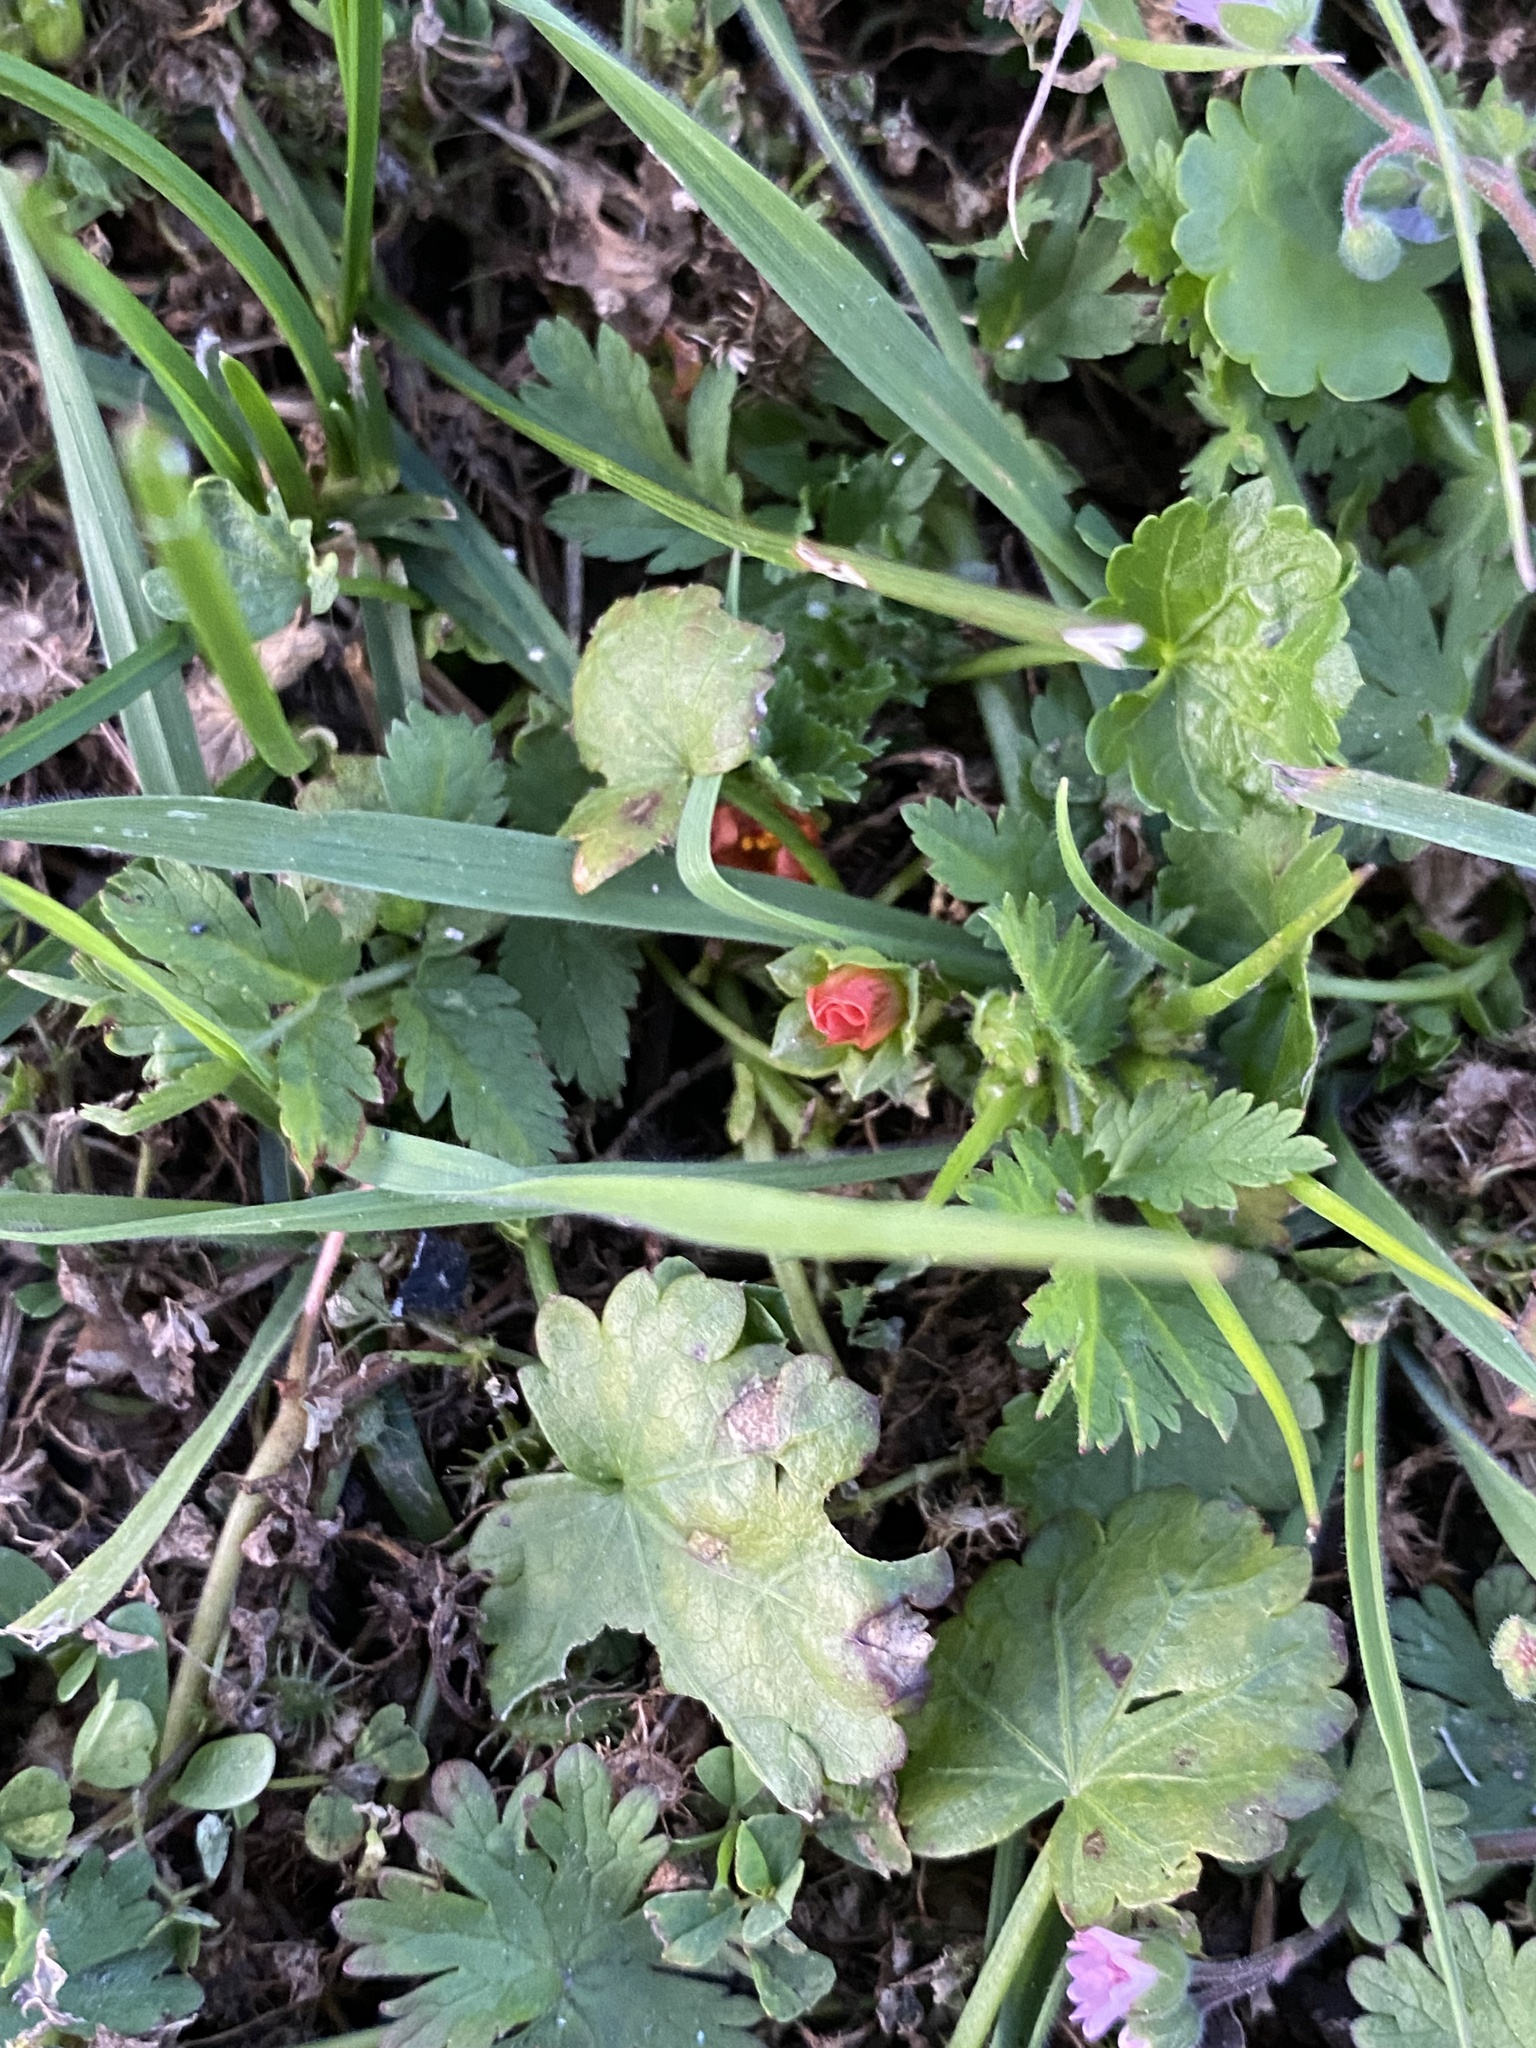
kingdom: Plantae
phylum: Tracheophyta
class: Magnoliopsida
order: Malvales
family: Malvaceae
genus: Modiola
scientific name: Modiola caroliniana
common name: Carolina bristlemallow
